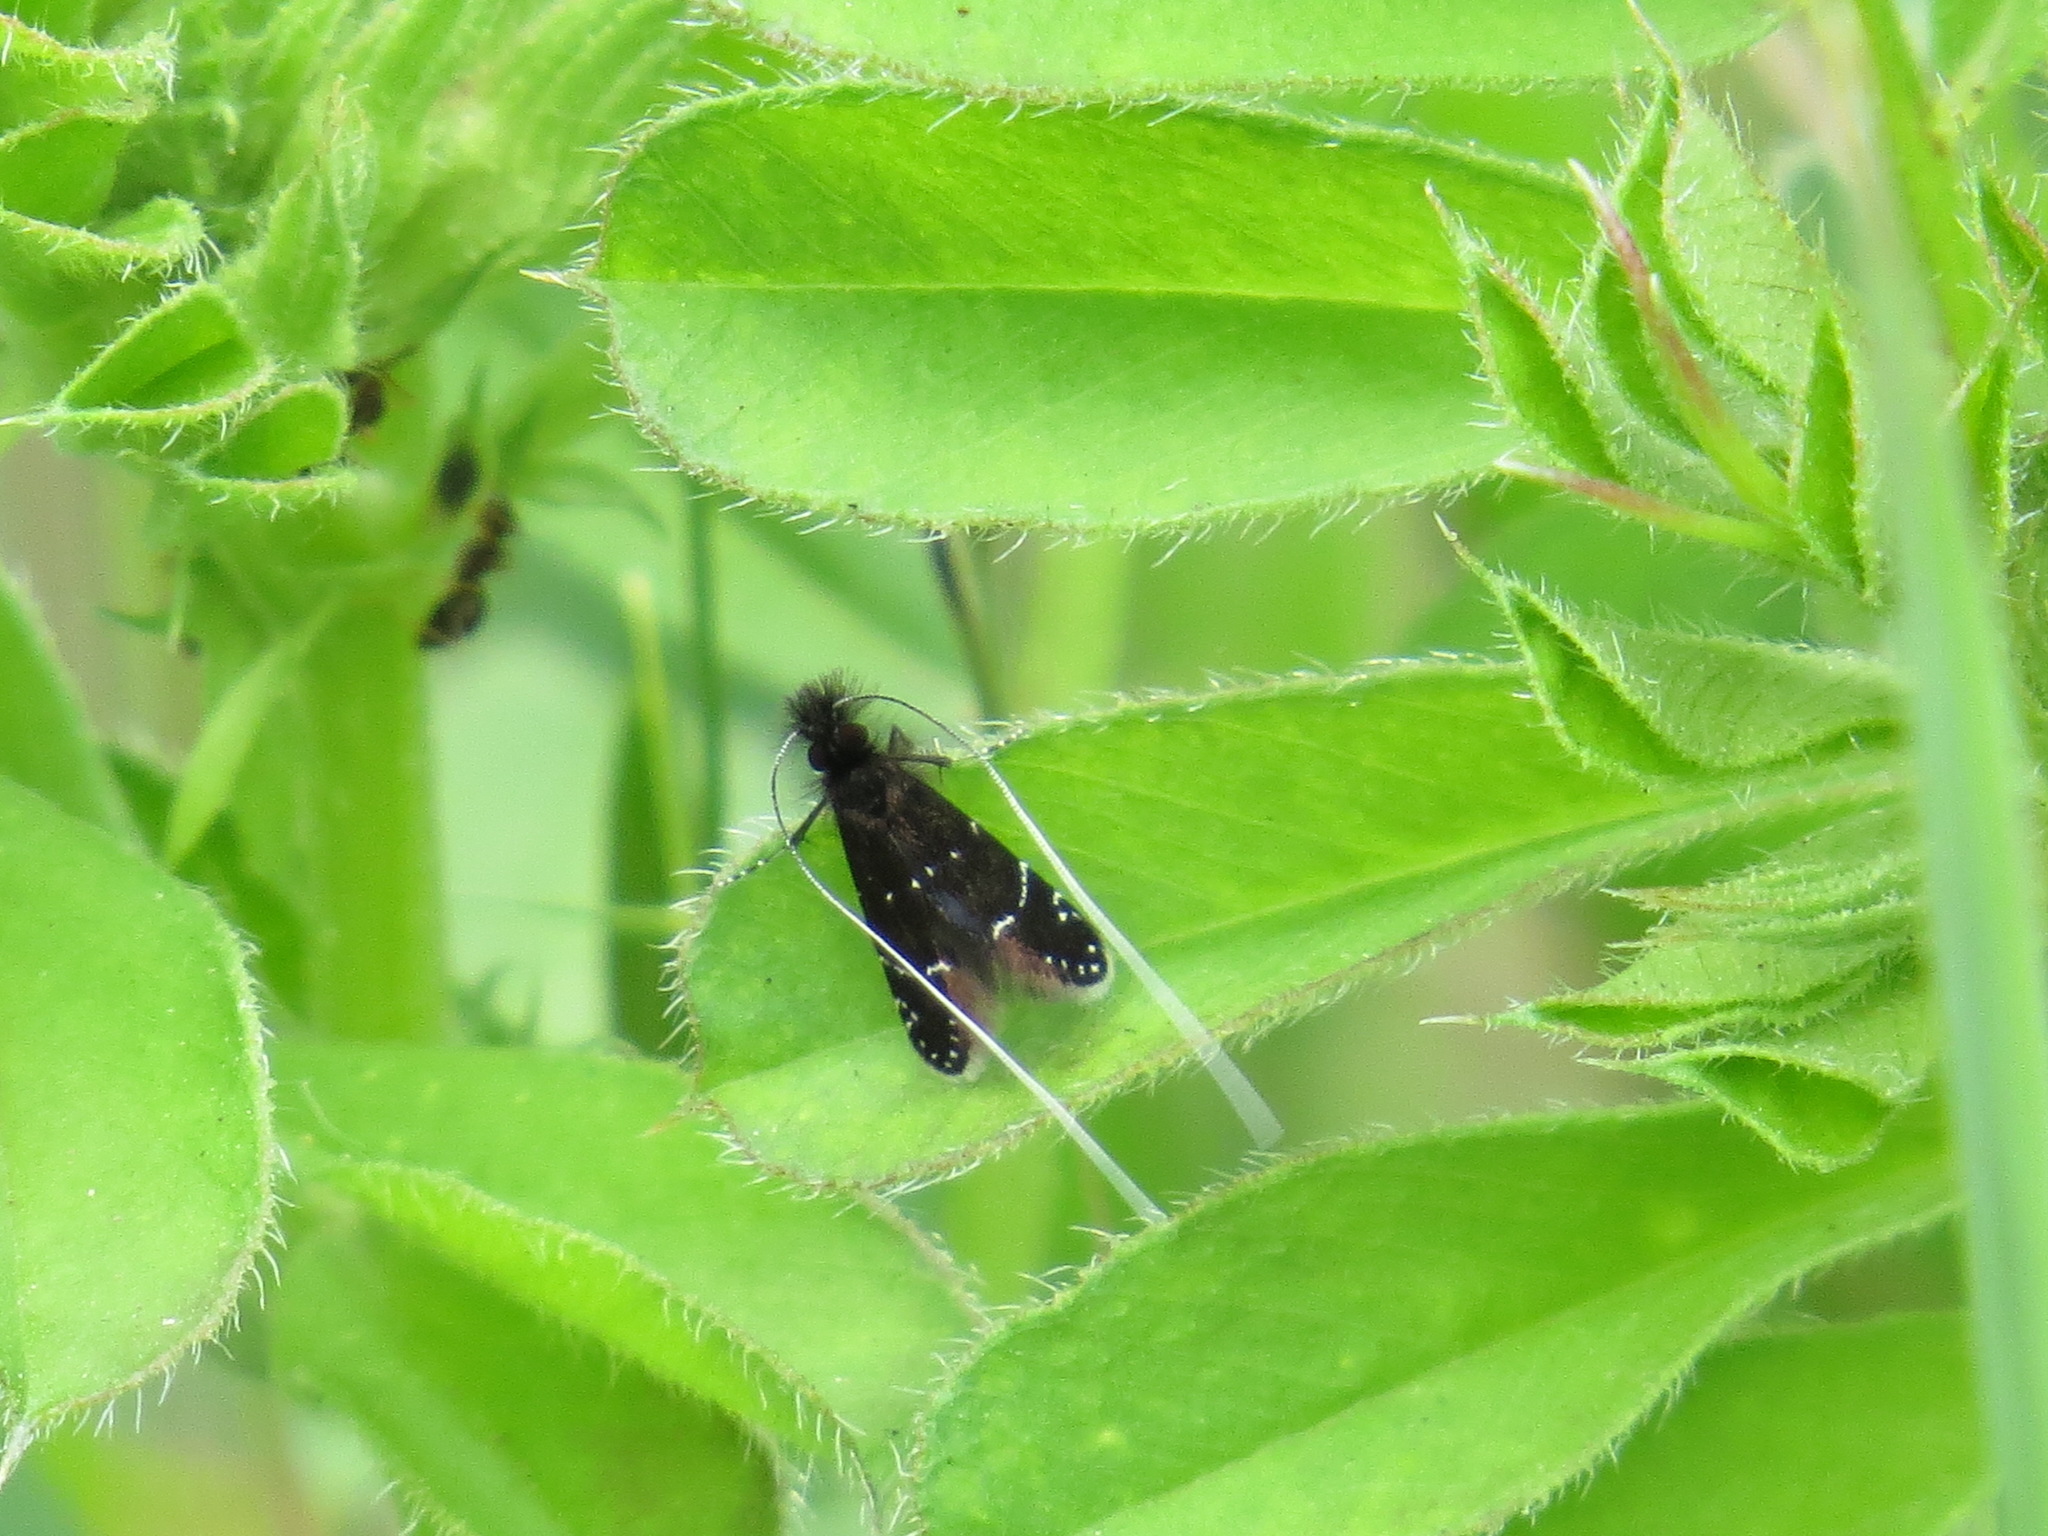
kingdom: Animalia
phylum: Arthropoda
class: Insecta
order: Lepidoptera
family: Adelidae
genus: Adela
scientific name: Adela septentrionella
